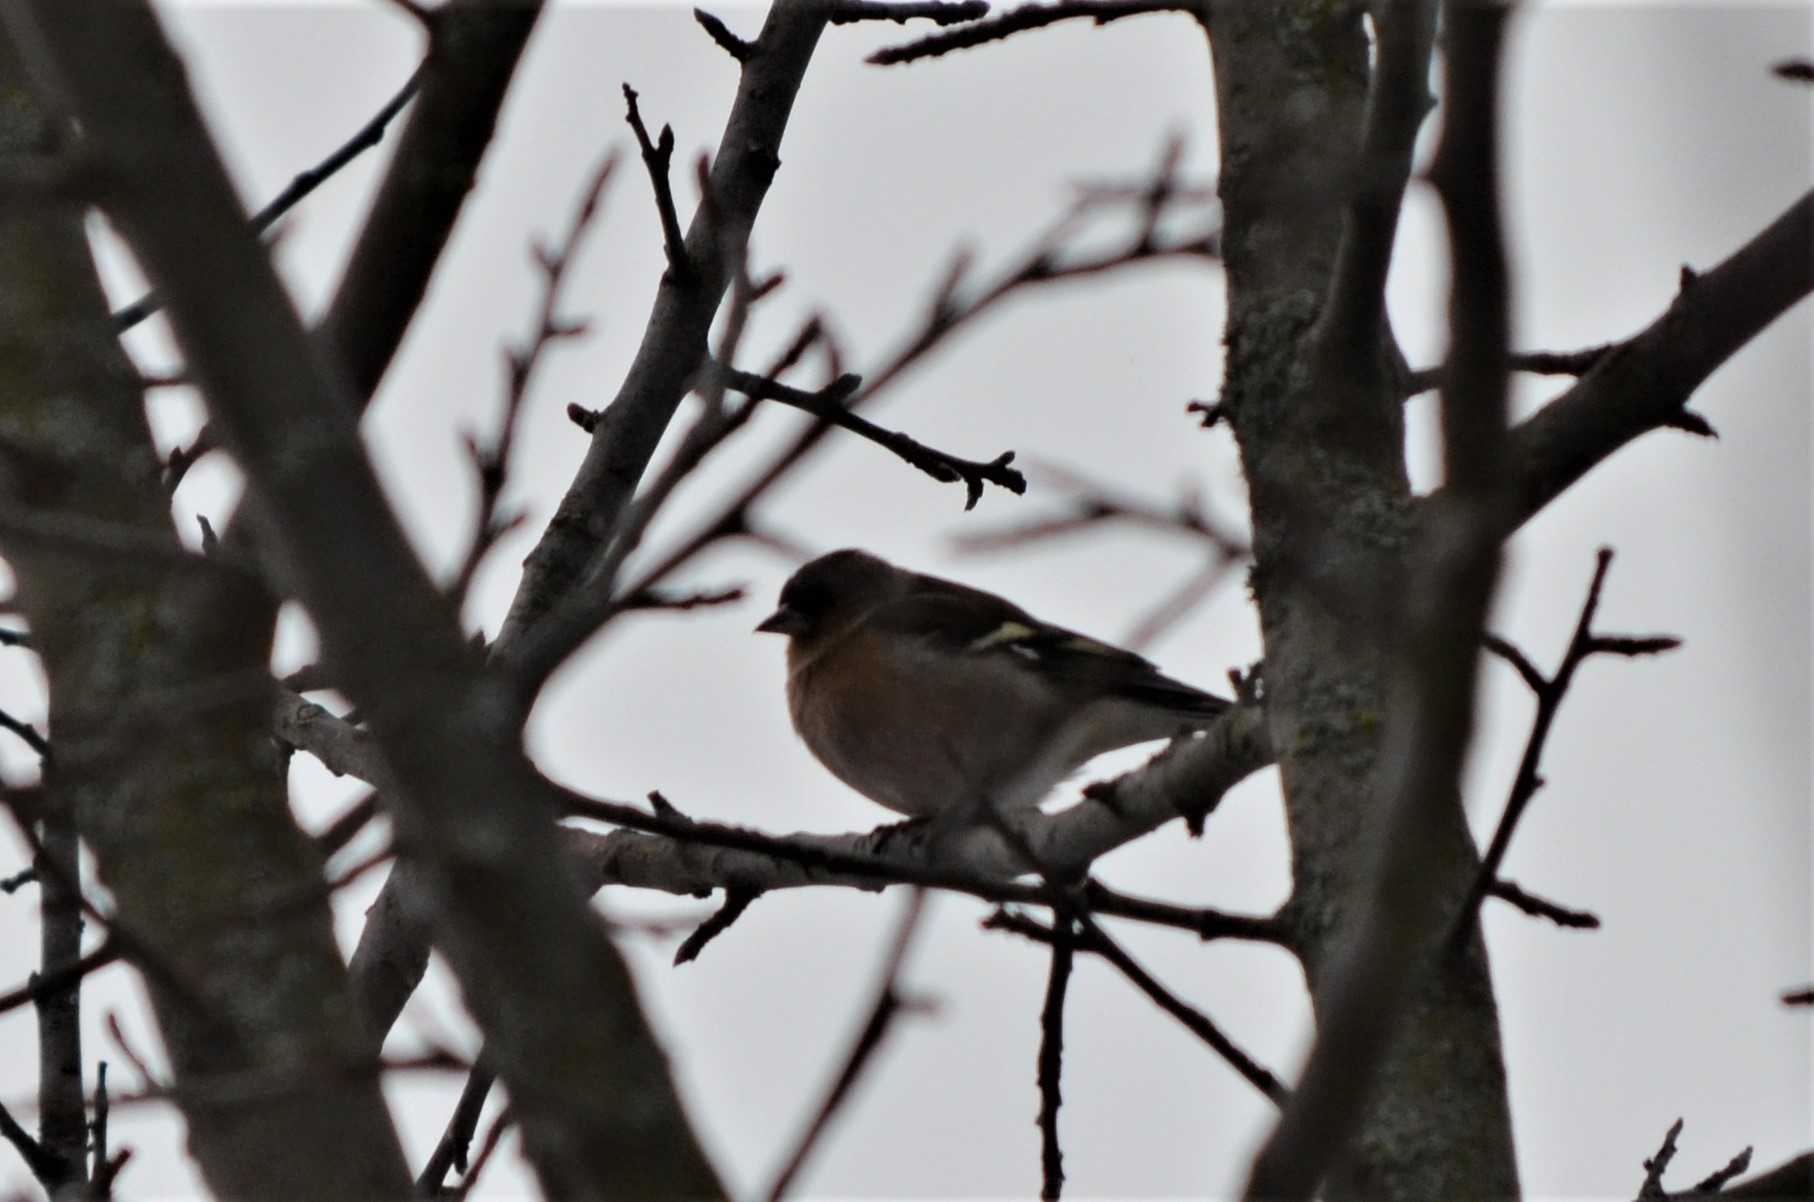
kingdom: Animalia
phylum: Chordata
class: Aves
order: Passeriformes
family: Fringillidae
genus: Fringilla
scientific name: Fringilla coelebs
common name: Common chaffinch
